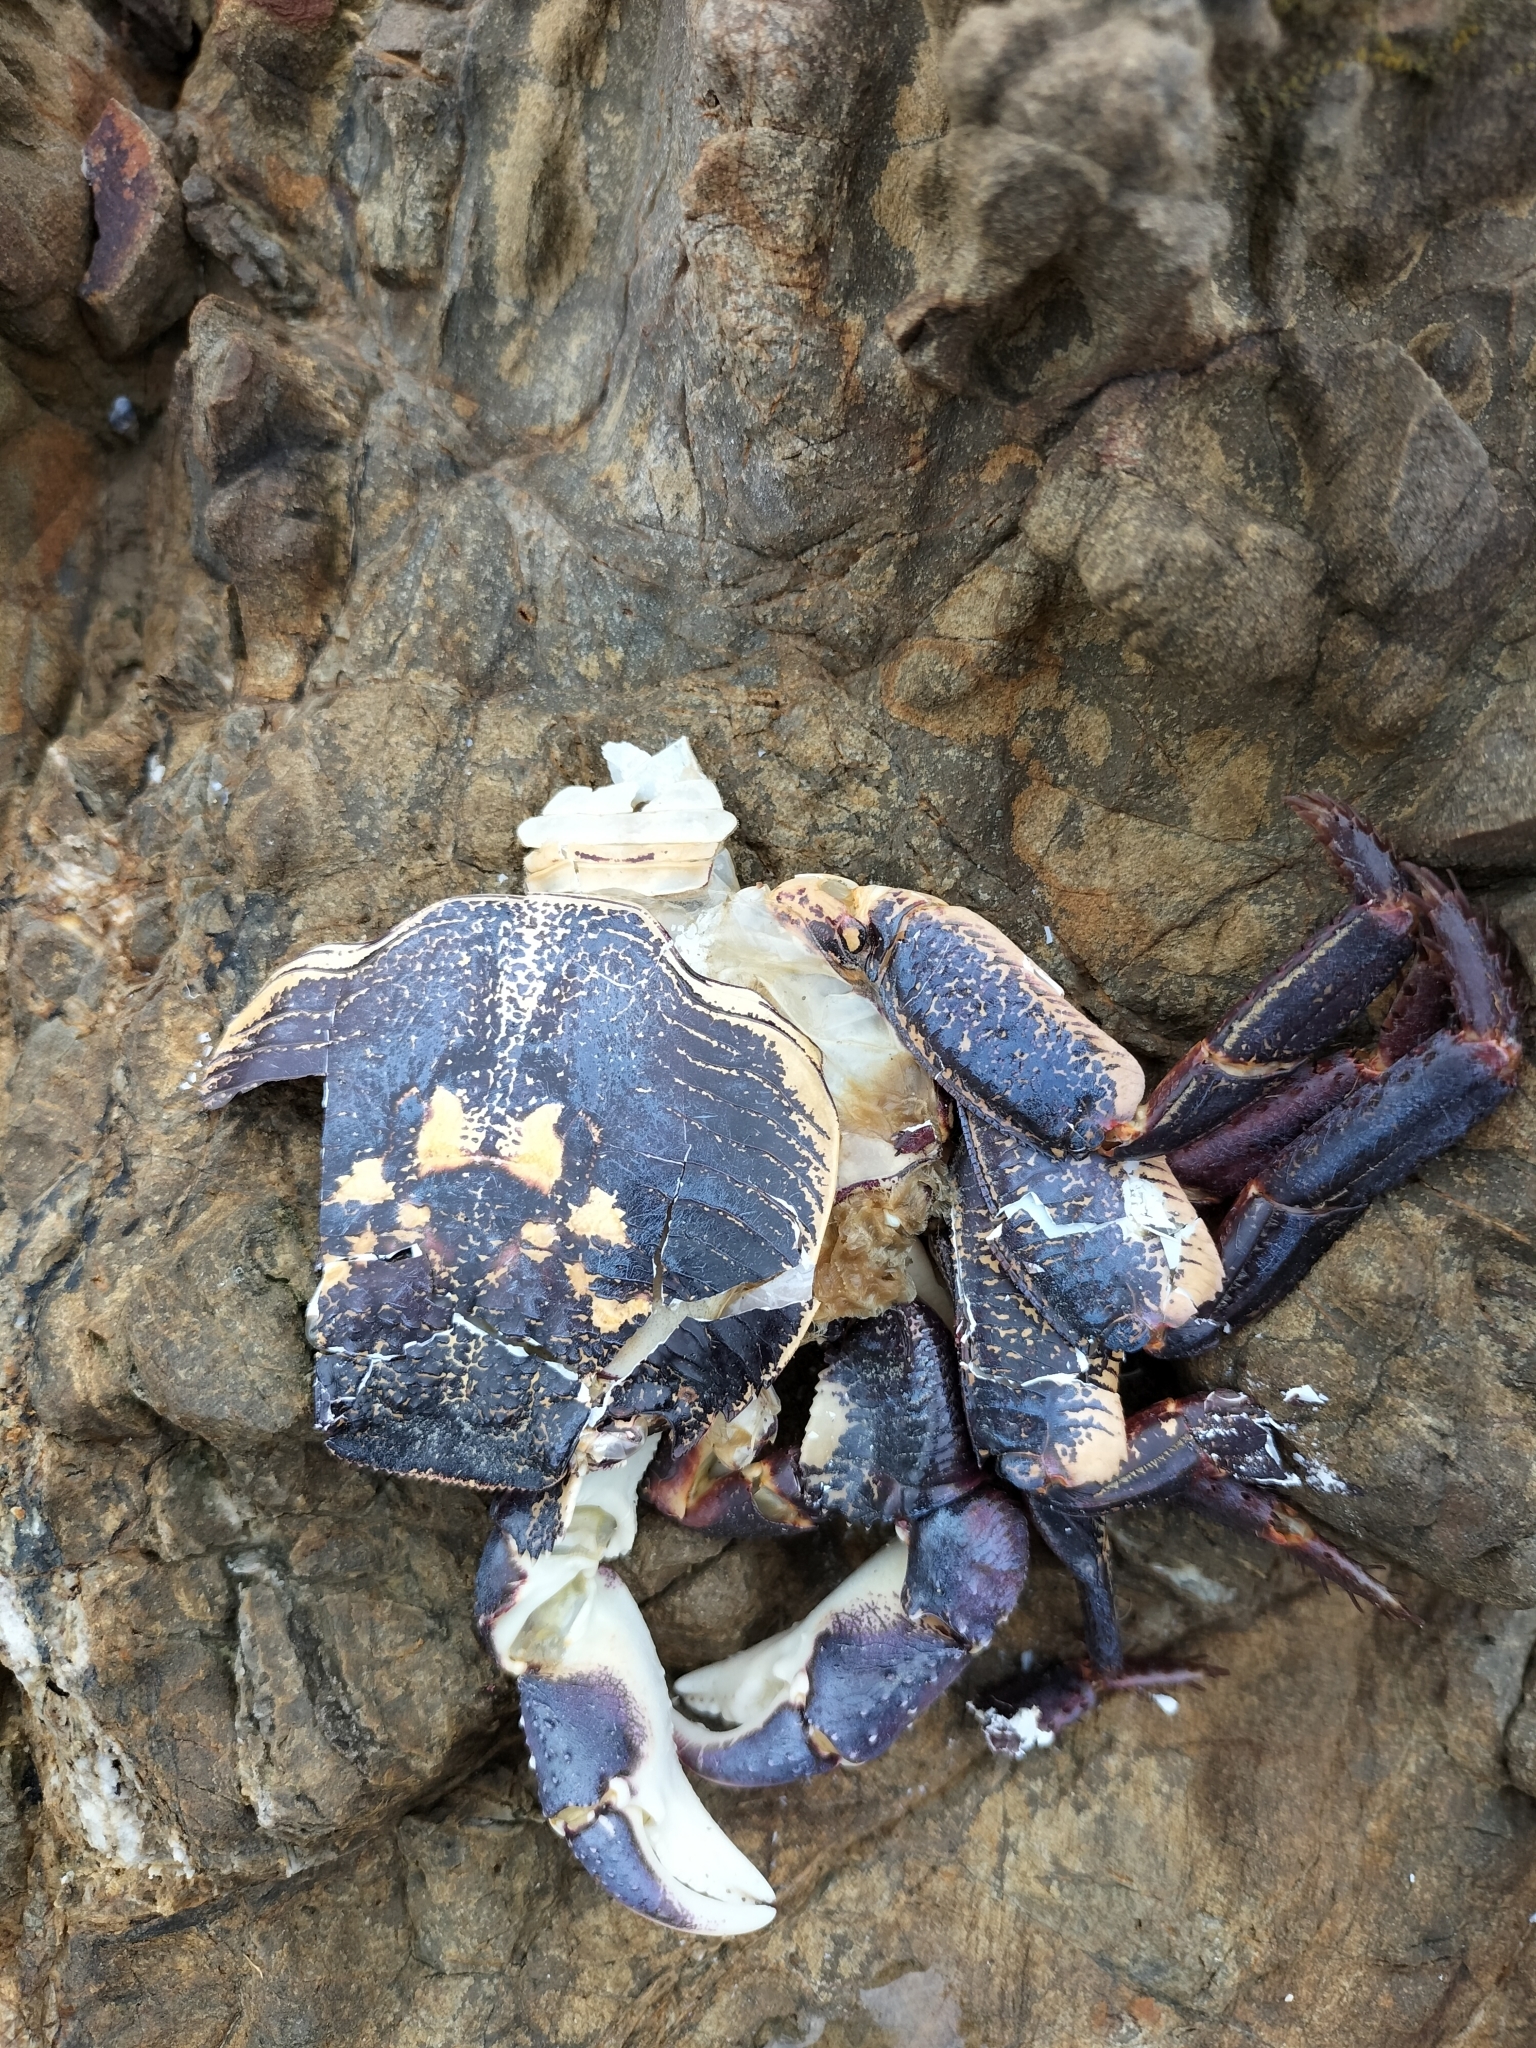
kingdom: Animalia
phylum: Arthropoda
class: Malacostraca
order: Decapoda
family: Grapsidae
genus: Leptograpsus
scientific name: Leptograpsus variegatus
